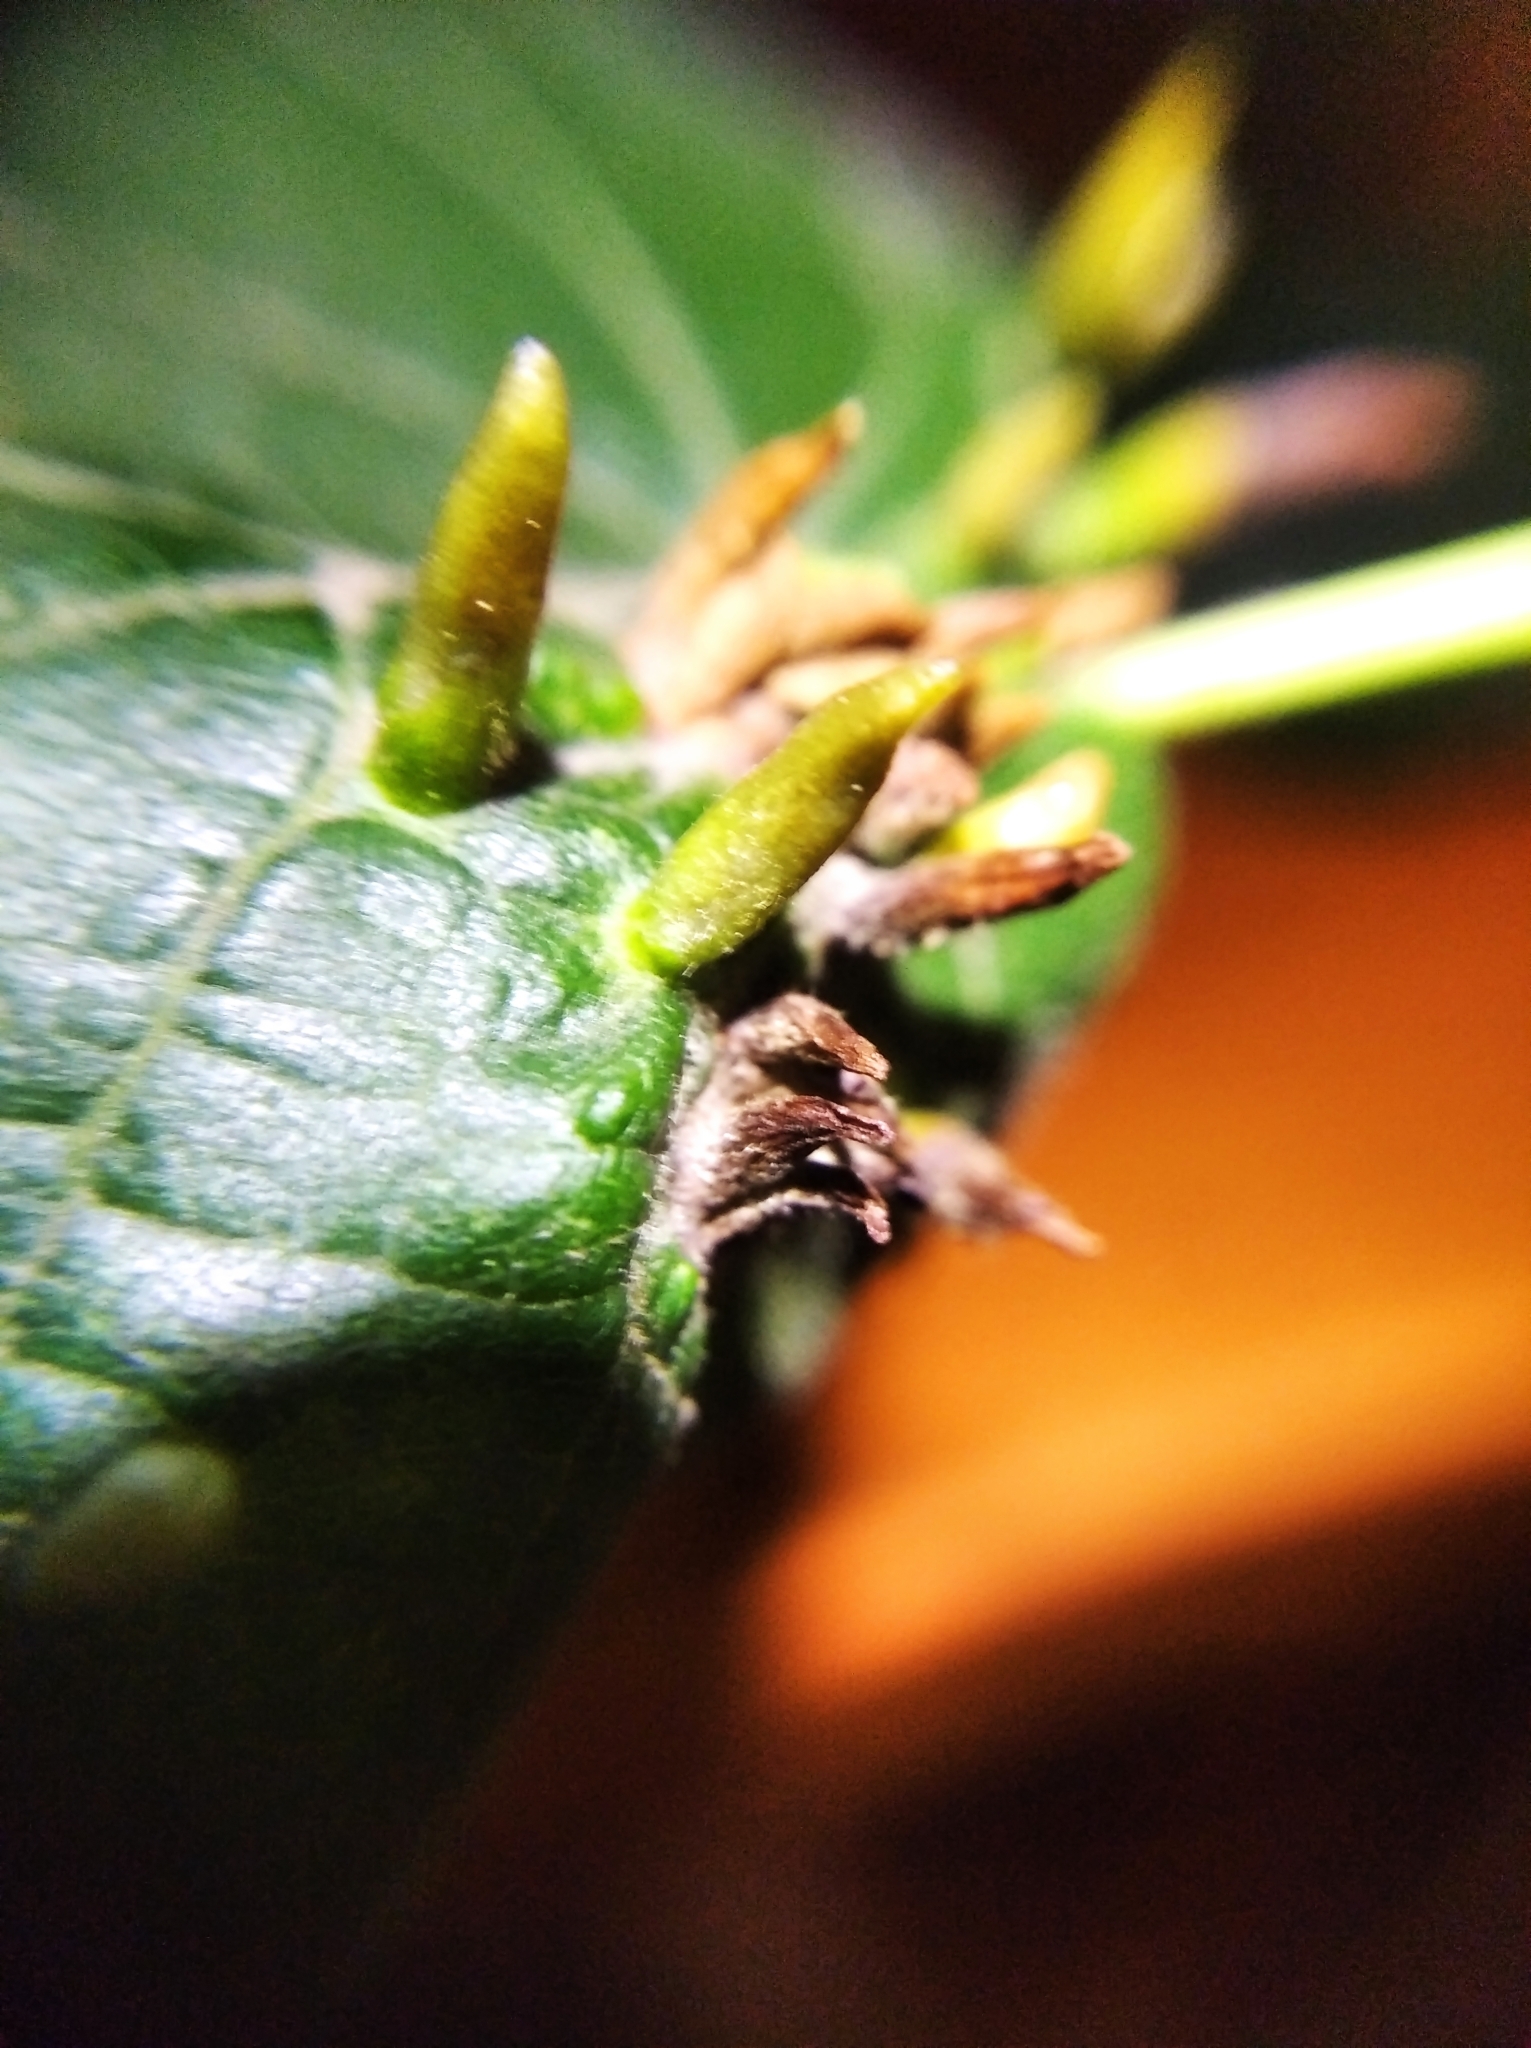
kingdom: Animalia
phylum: Arthropoda
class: Arachnida
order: Trombidiformes
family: Eriophyidae
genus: Eriophyes
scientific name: Eriophyes tiliae
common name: Red nail gall mite
